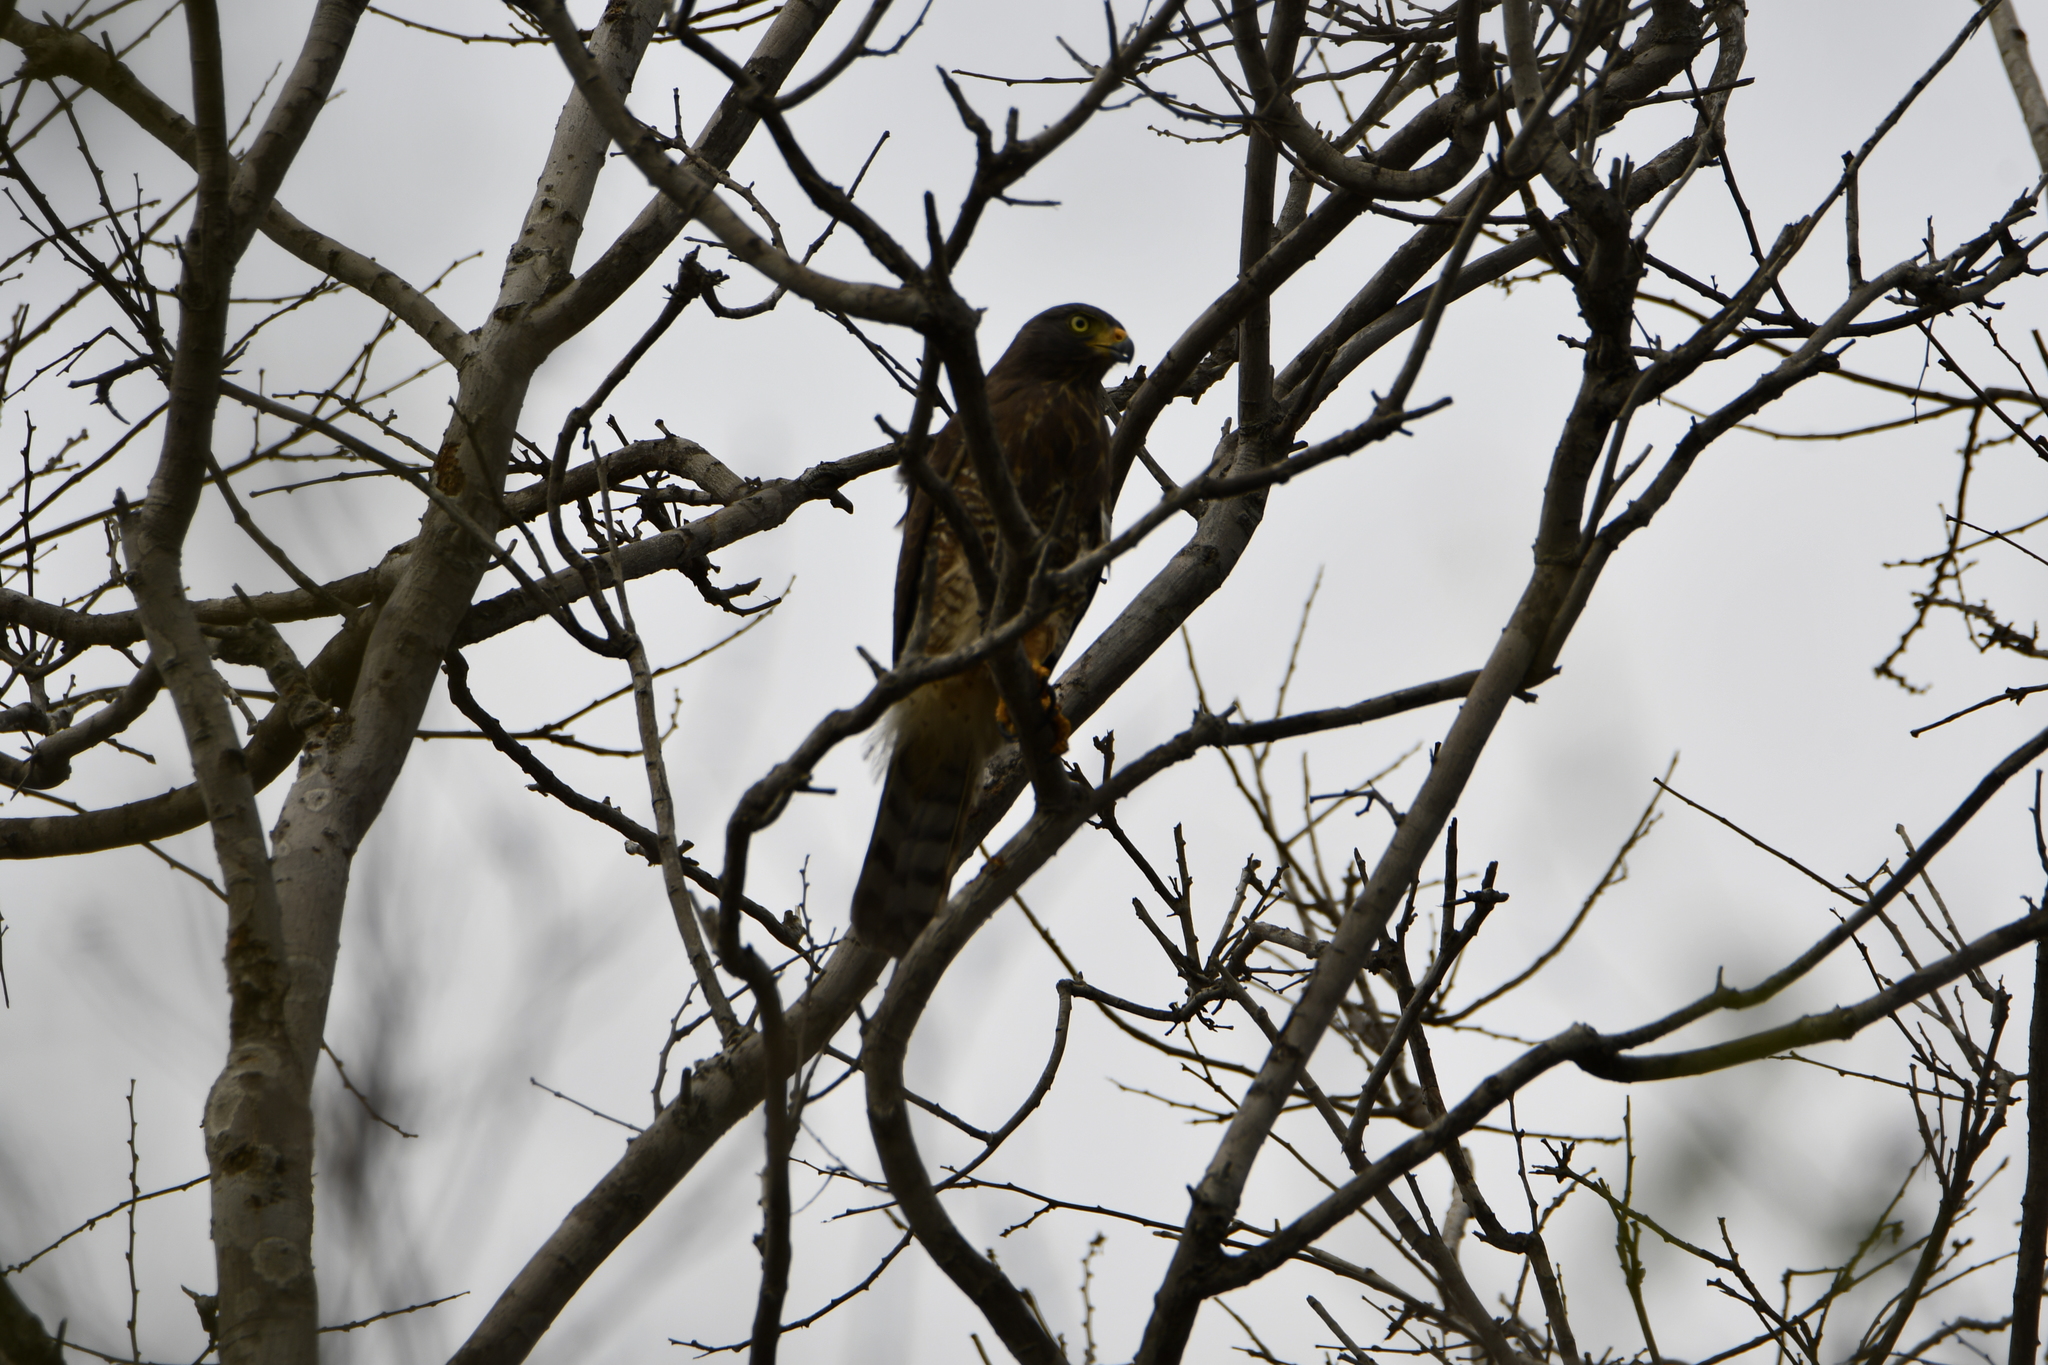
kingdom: Animalia
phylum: Chordata
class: Aves
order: Accipitriformes
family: Accipitridae
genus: Rupornis
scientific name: Rupornis magnirostris
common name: Roadside hawk
